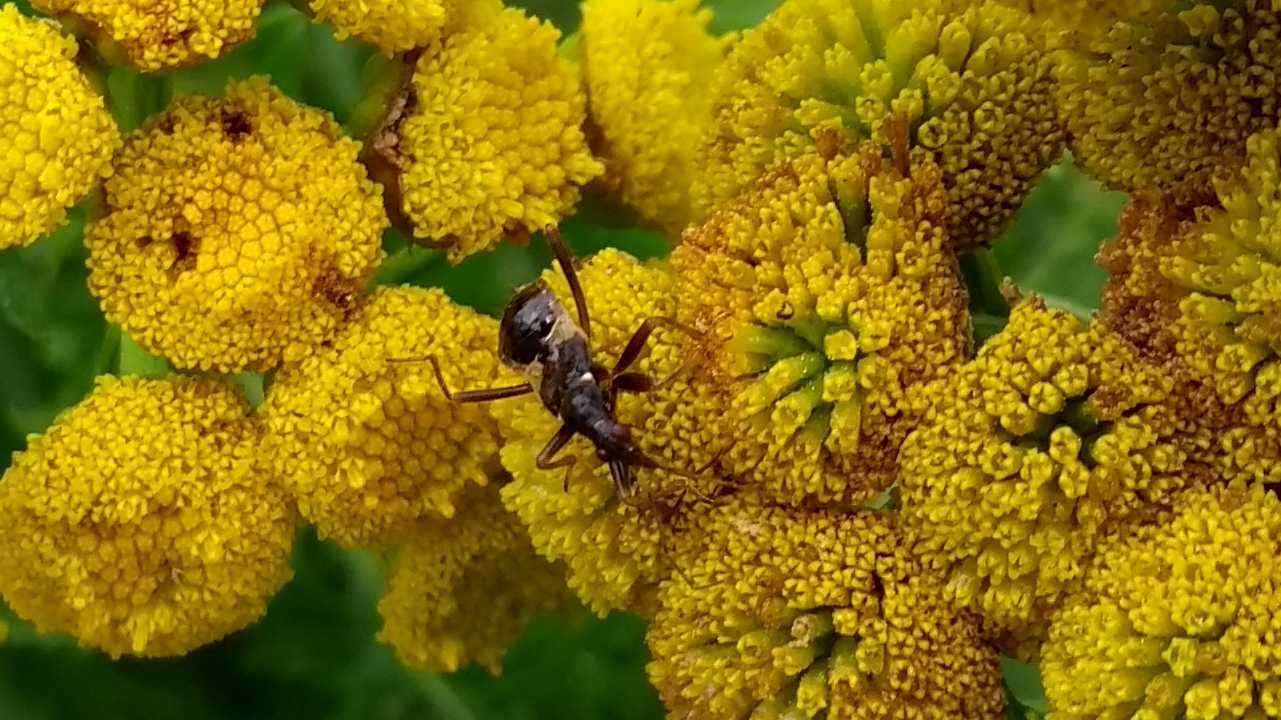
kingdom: Animalia
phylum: Arthropoda
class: Insecta
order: Hemiptera
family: Nabidae
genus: Himacerus
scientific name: Himacerus mirmicoides
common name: Ant damsel bug
